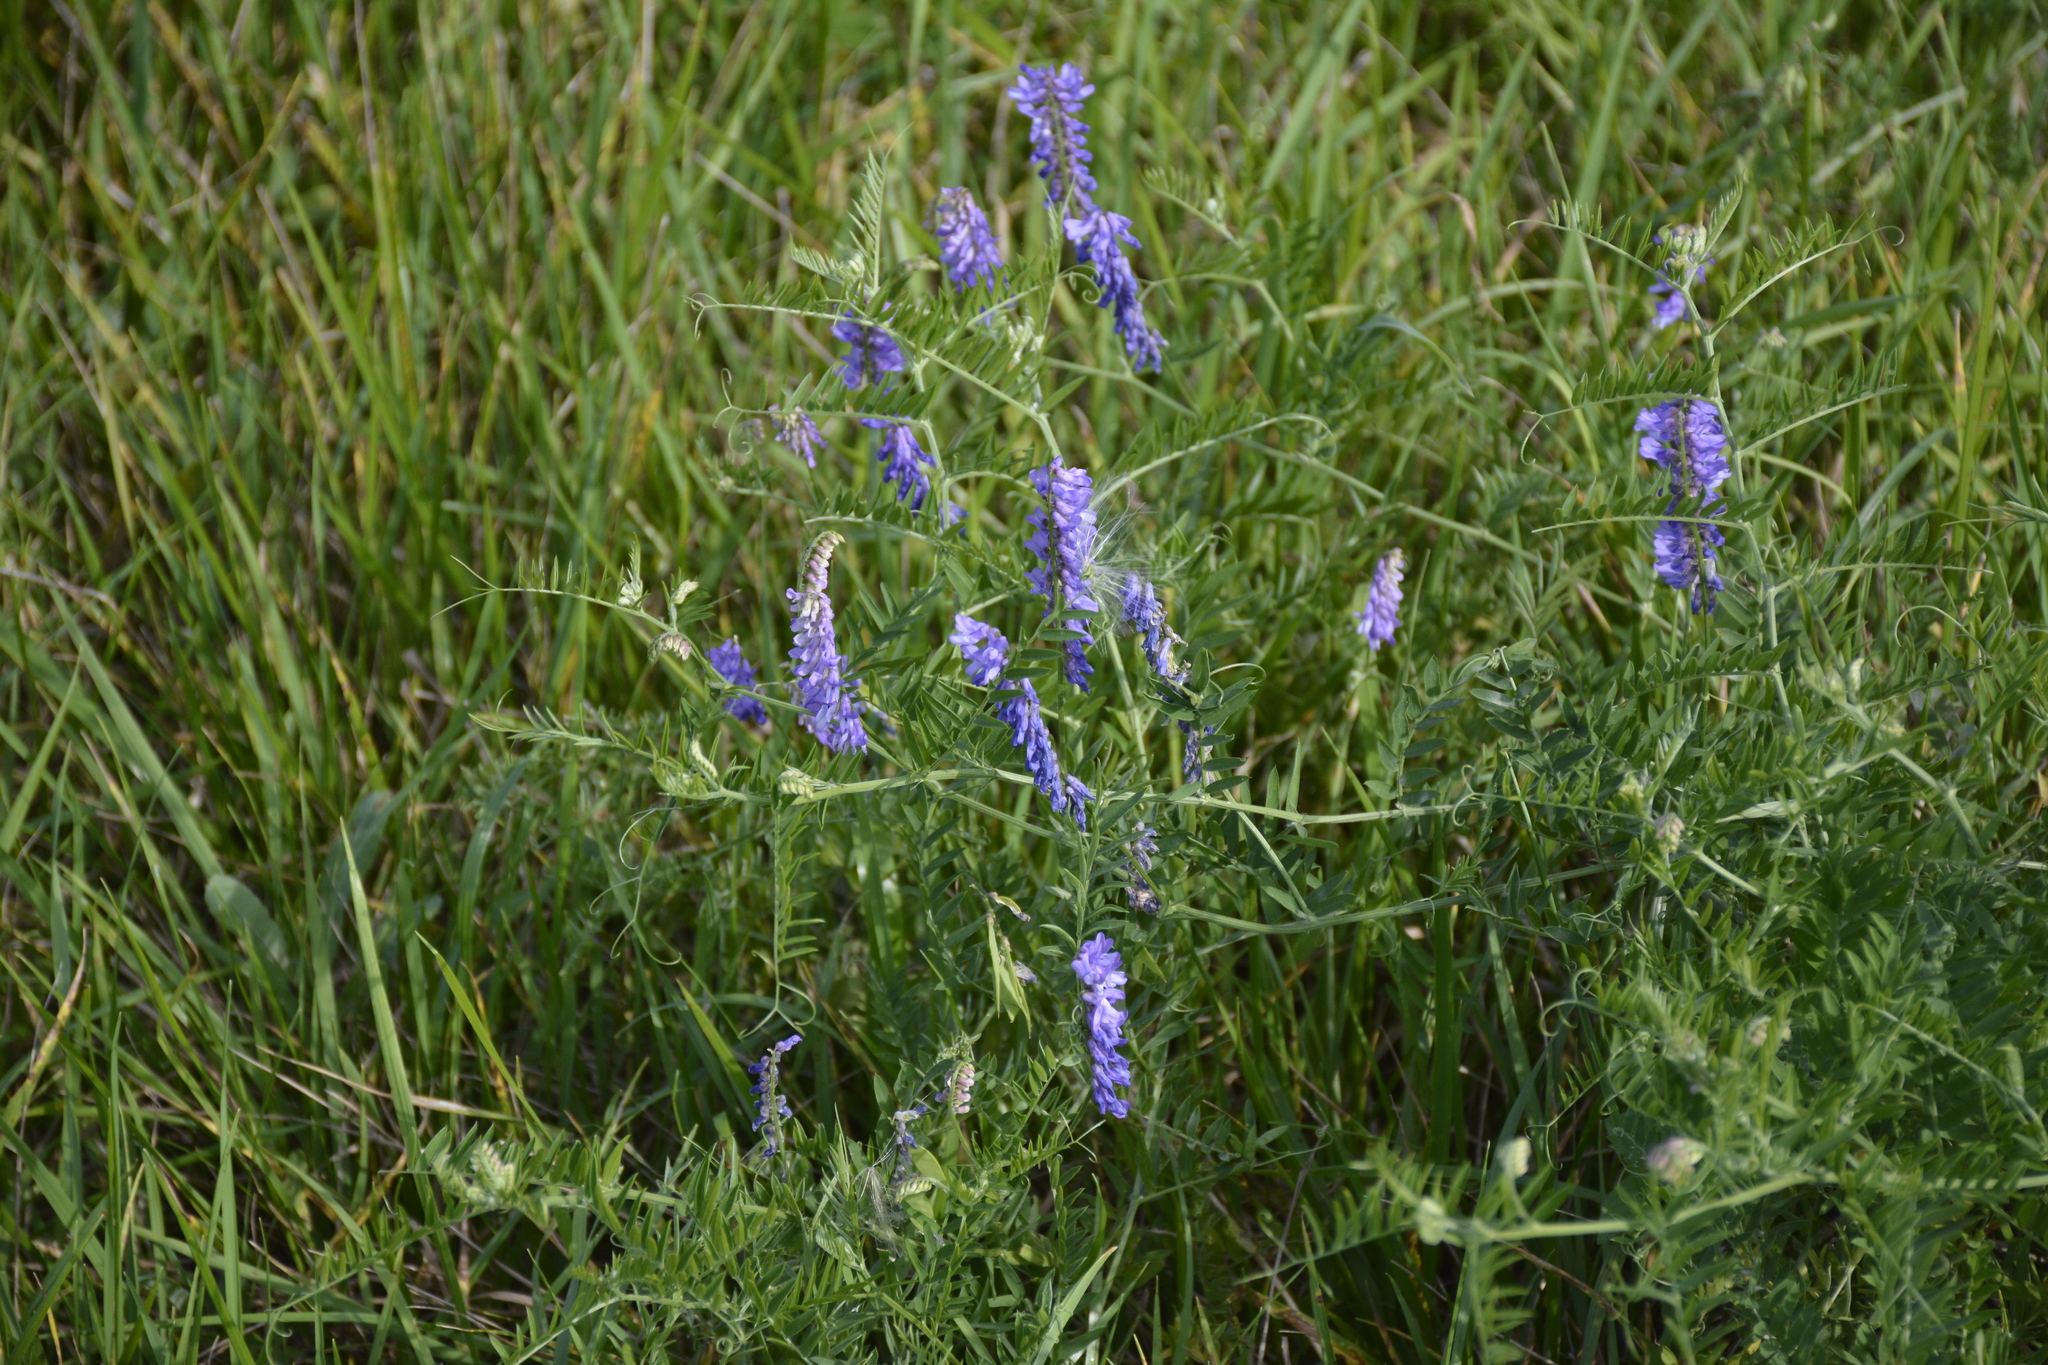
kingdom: Plantae
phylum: Tracheophyta
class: Magnoliopsida
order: Fabales
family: Fabaceae
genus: Vicia
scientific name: Vicia cracca
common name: Bird vetch
